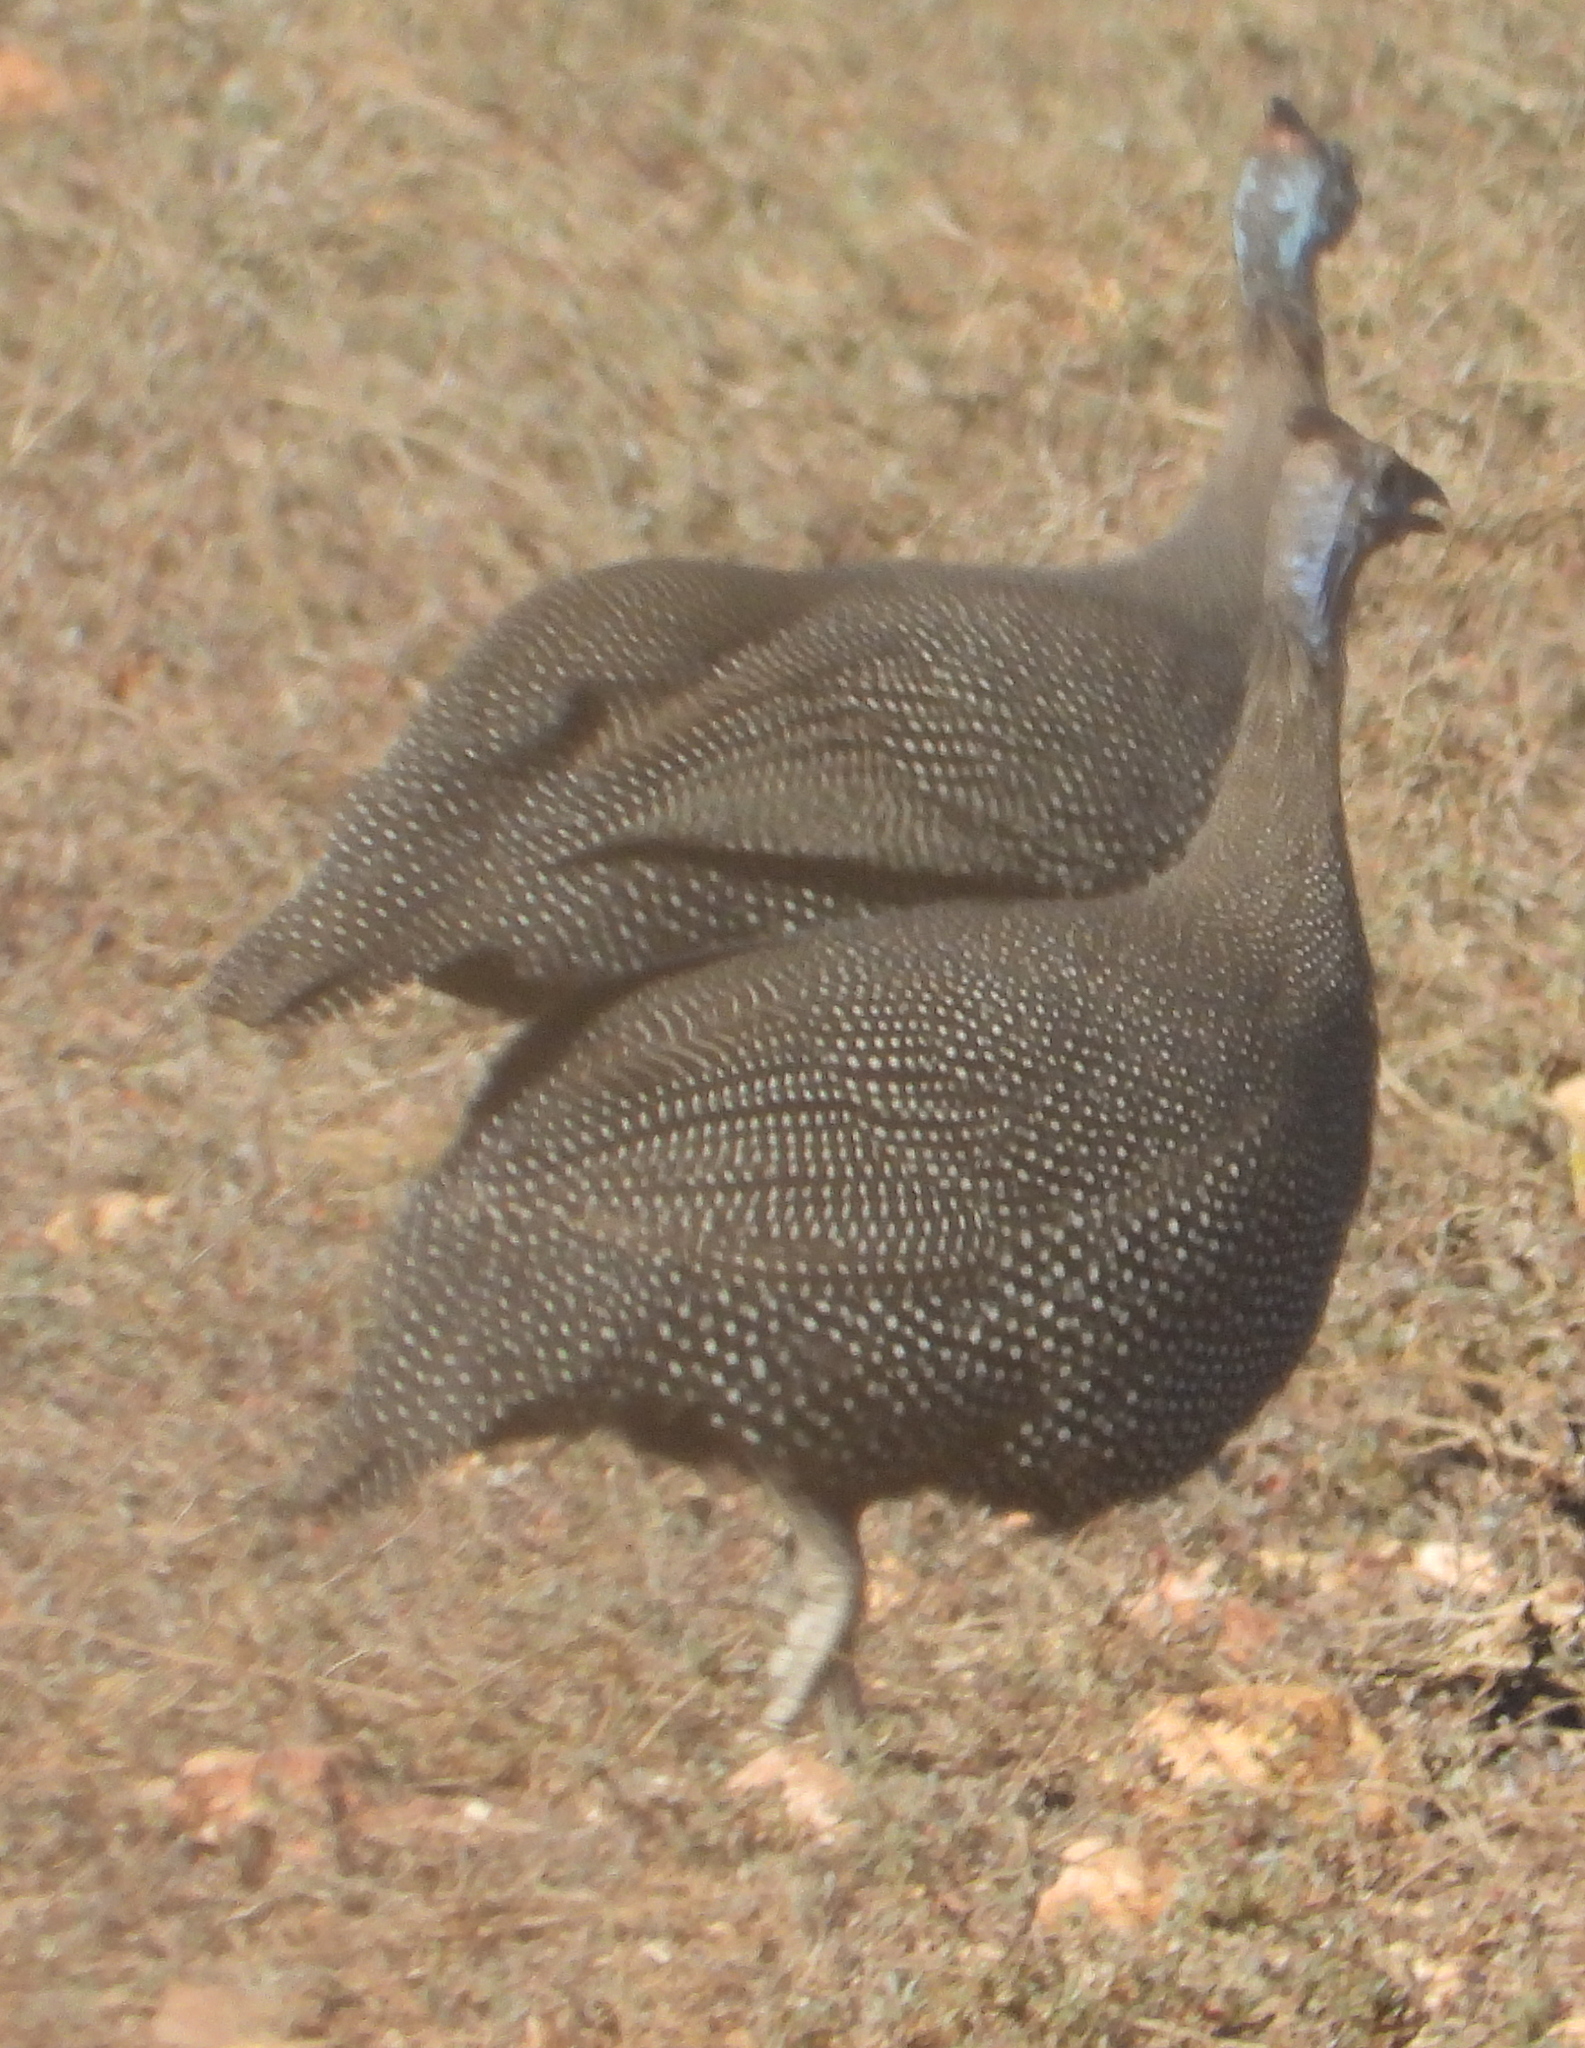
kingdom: Animalia
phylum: Chordata
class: Aves
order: Galliformes
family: Numididae
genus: Numida
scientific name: Numida meleagris
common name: Helmeted guineafowl
